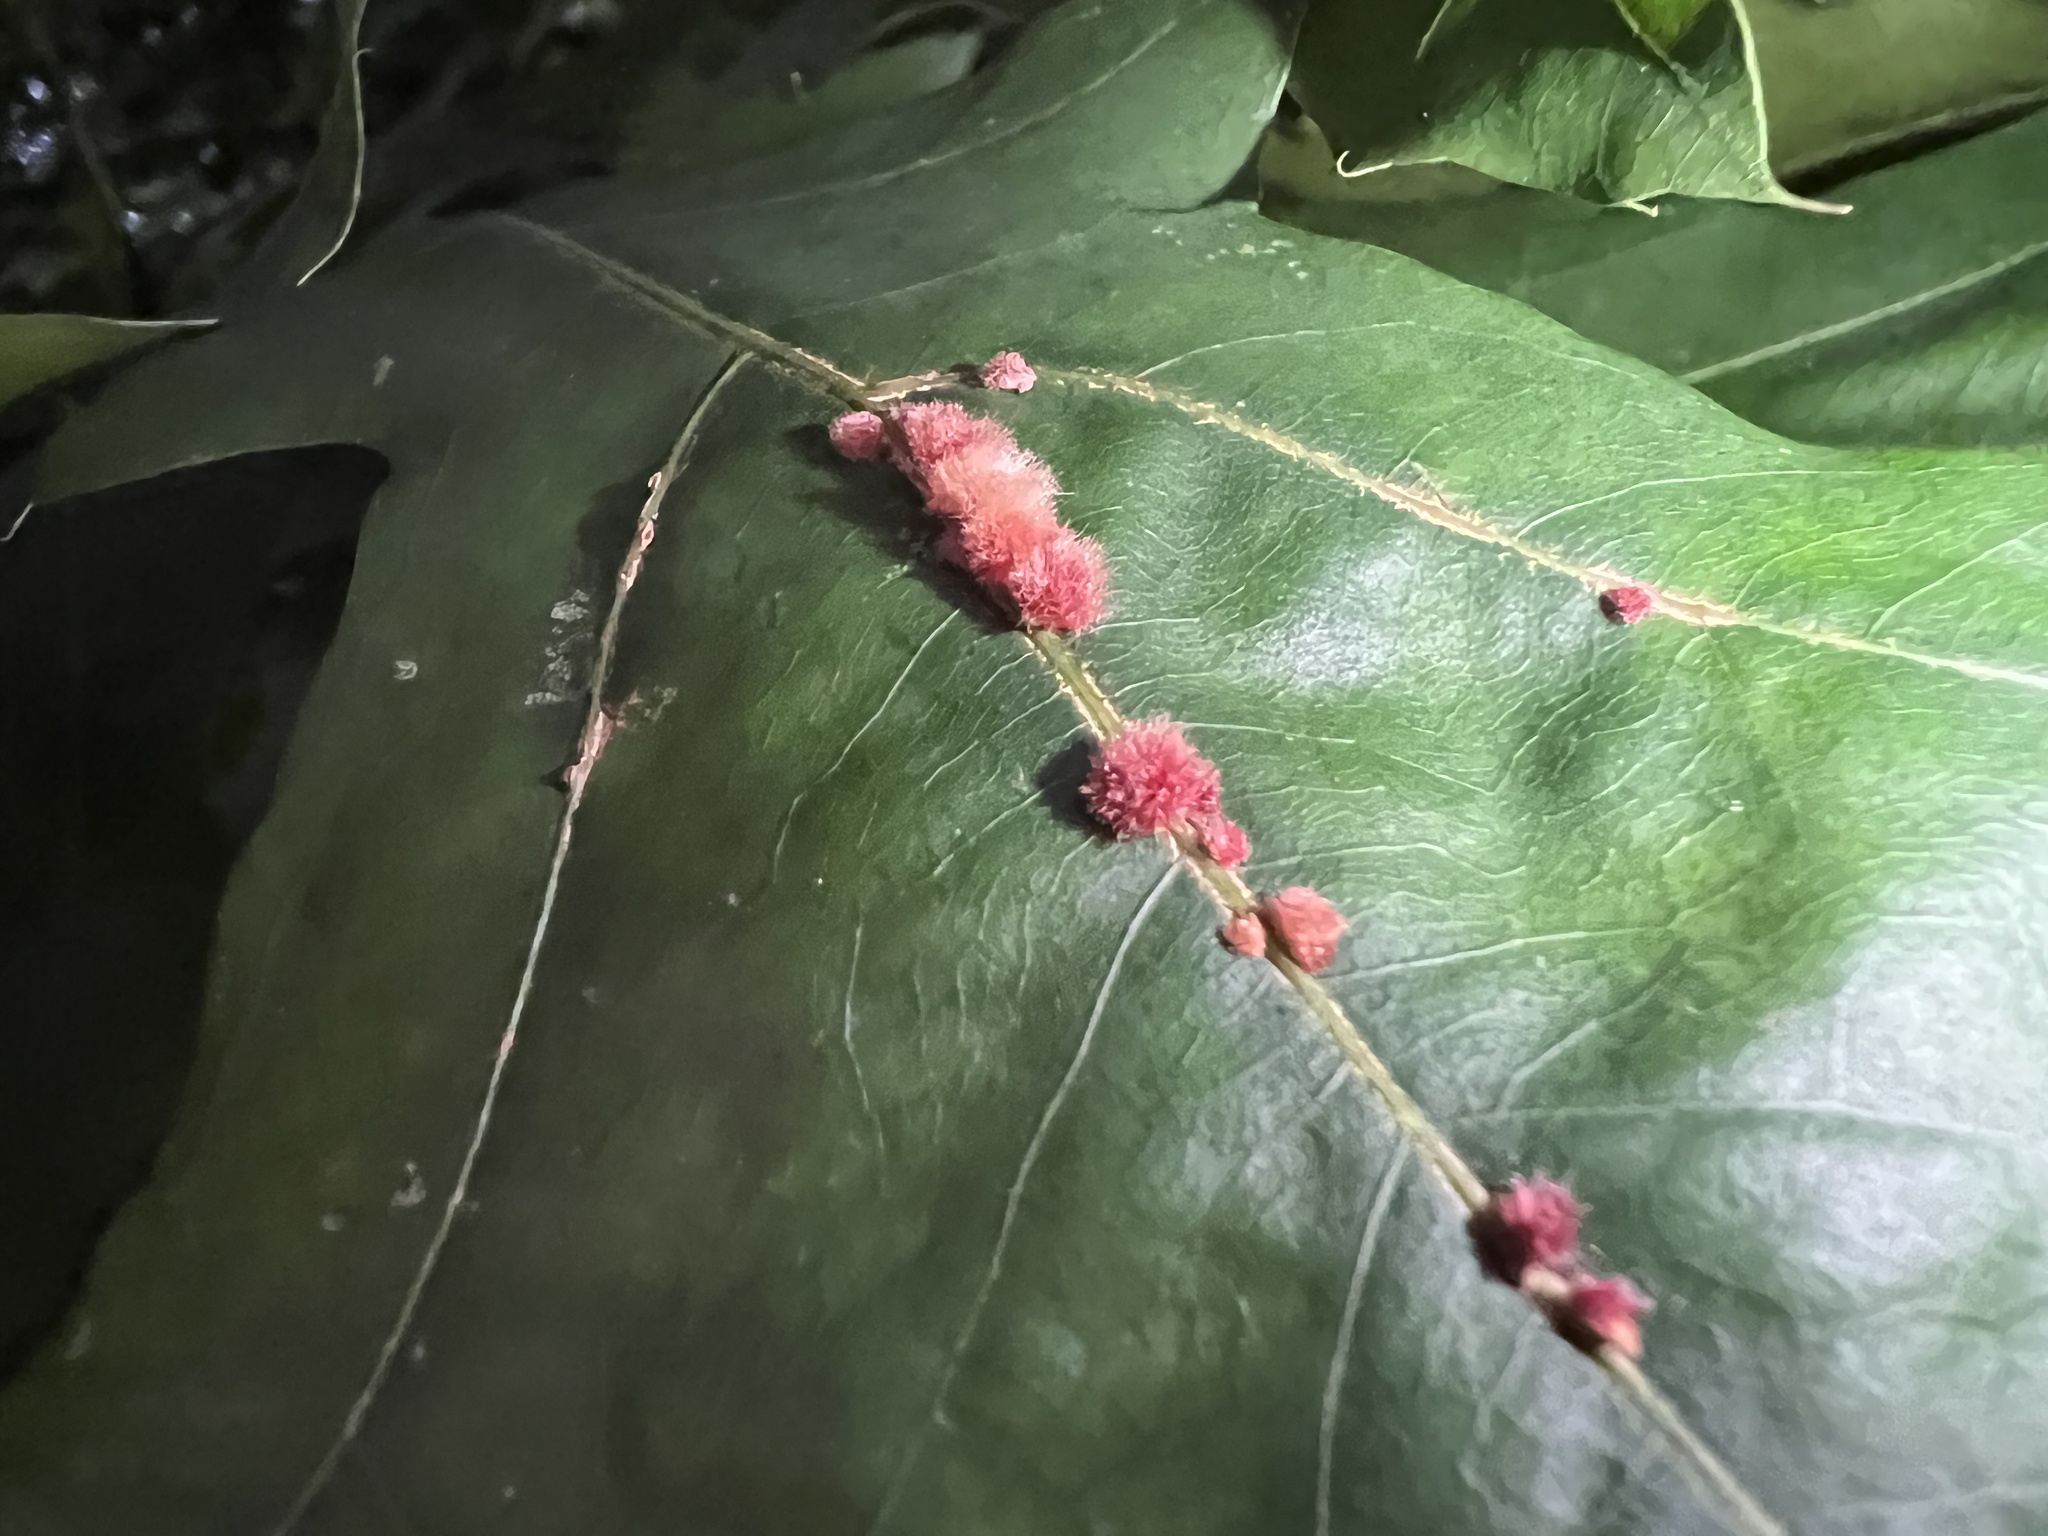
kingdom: Animalia
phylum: Arthropoda
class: Insecta
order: Hymenoptera
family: Cynipidae
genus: Callirhytis
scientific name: Callirhytis
